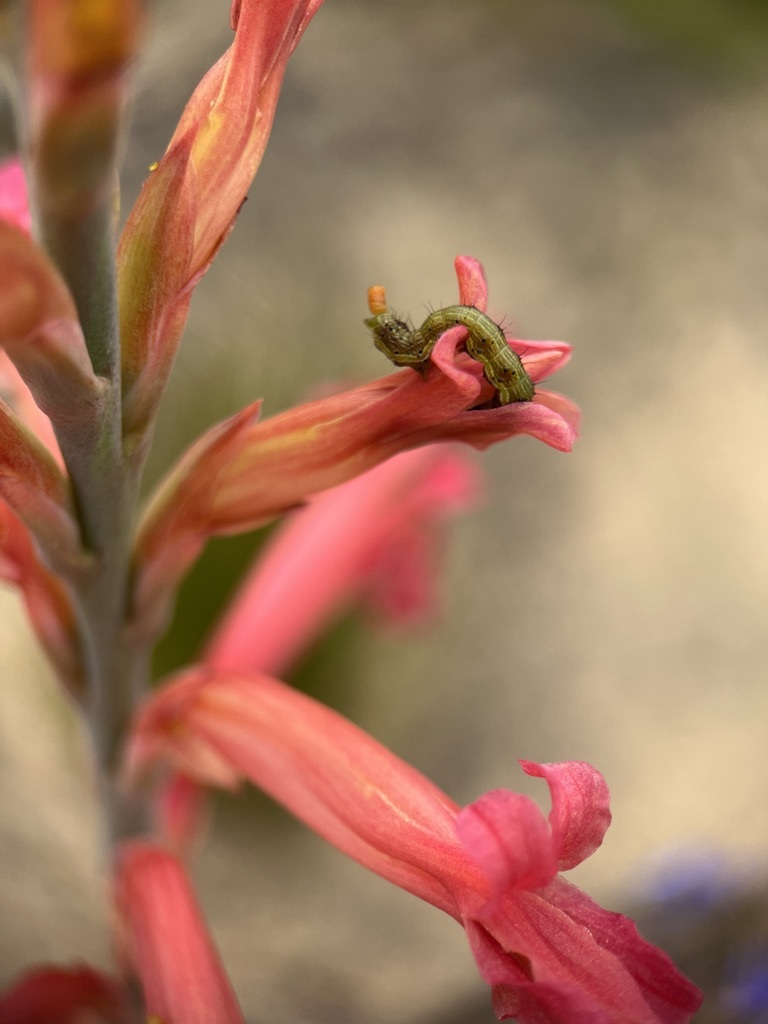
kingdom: Animalia
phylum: Arthropoda
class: Insecta
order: Lepidoptera
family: Noctuidae
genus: Helicoverpa
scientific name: Helicoverpa armigera
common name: Cotton bollworm
